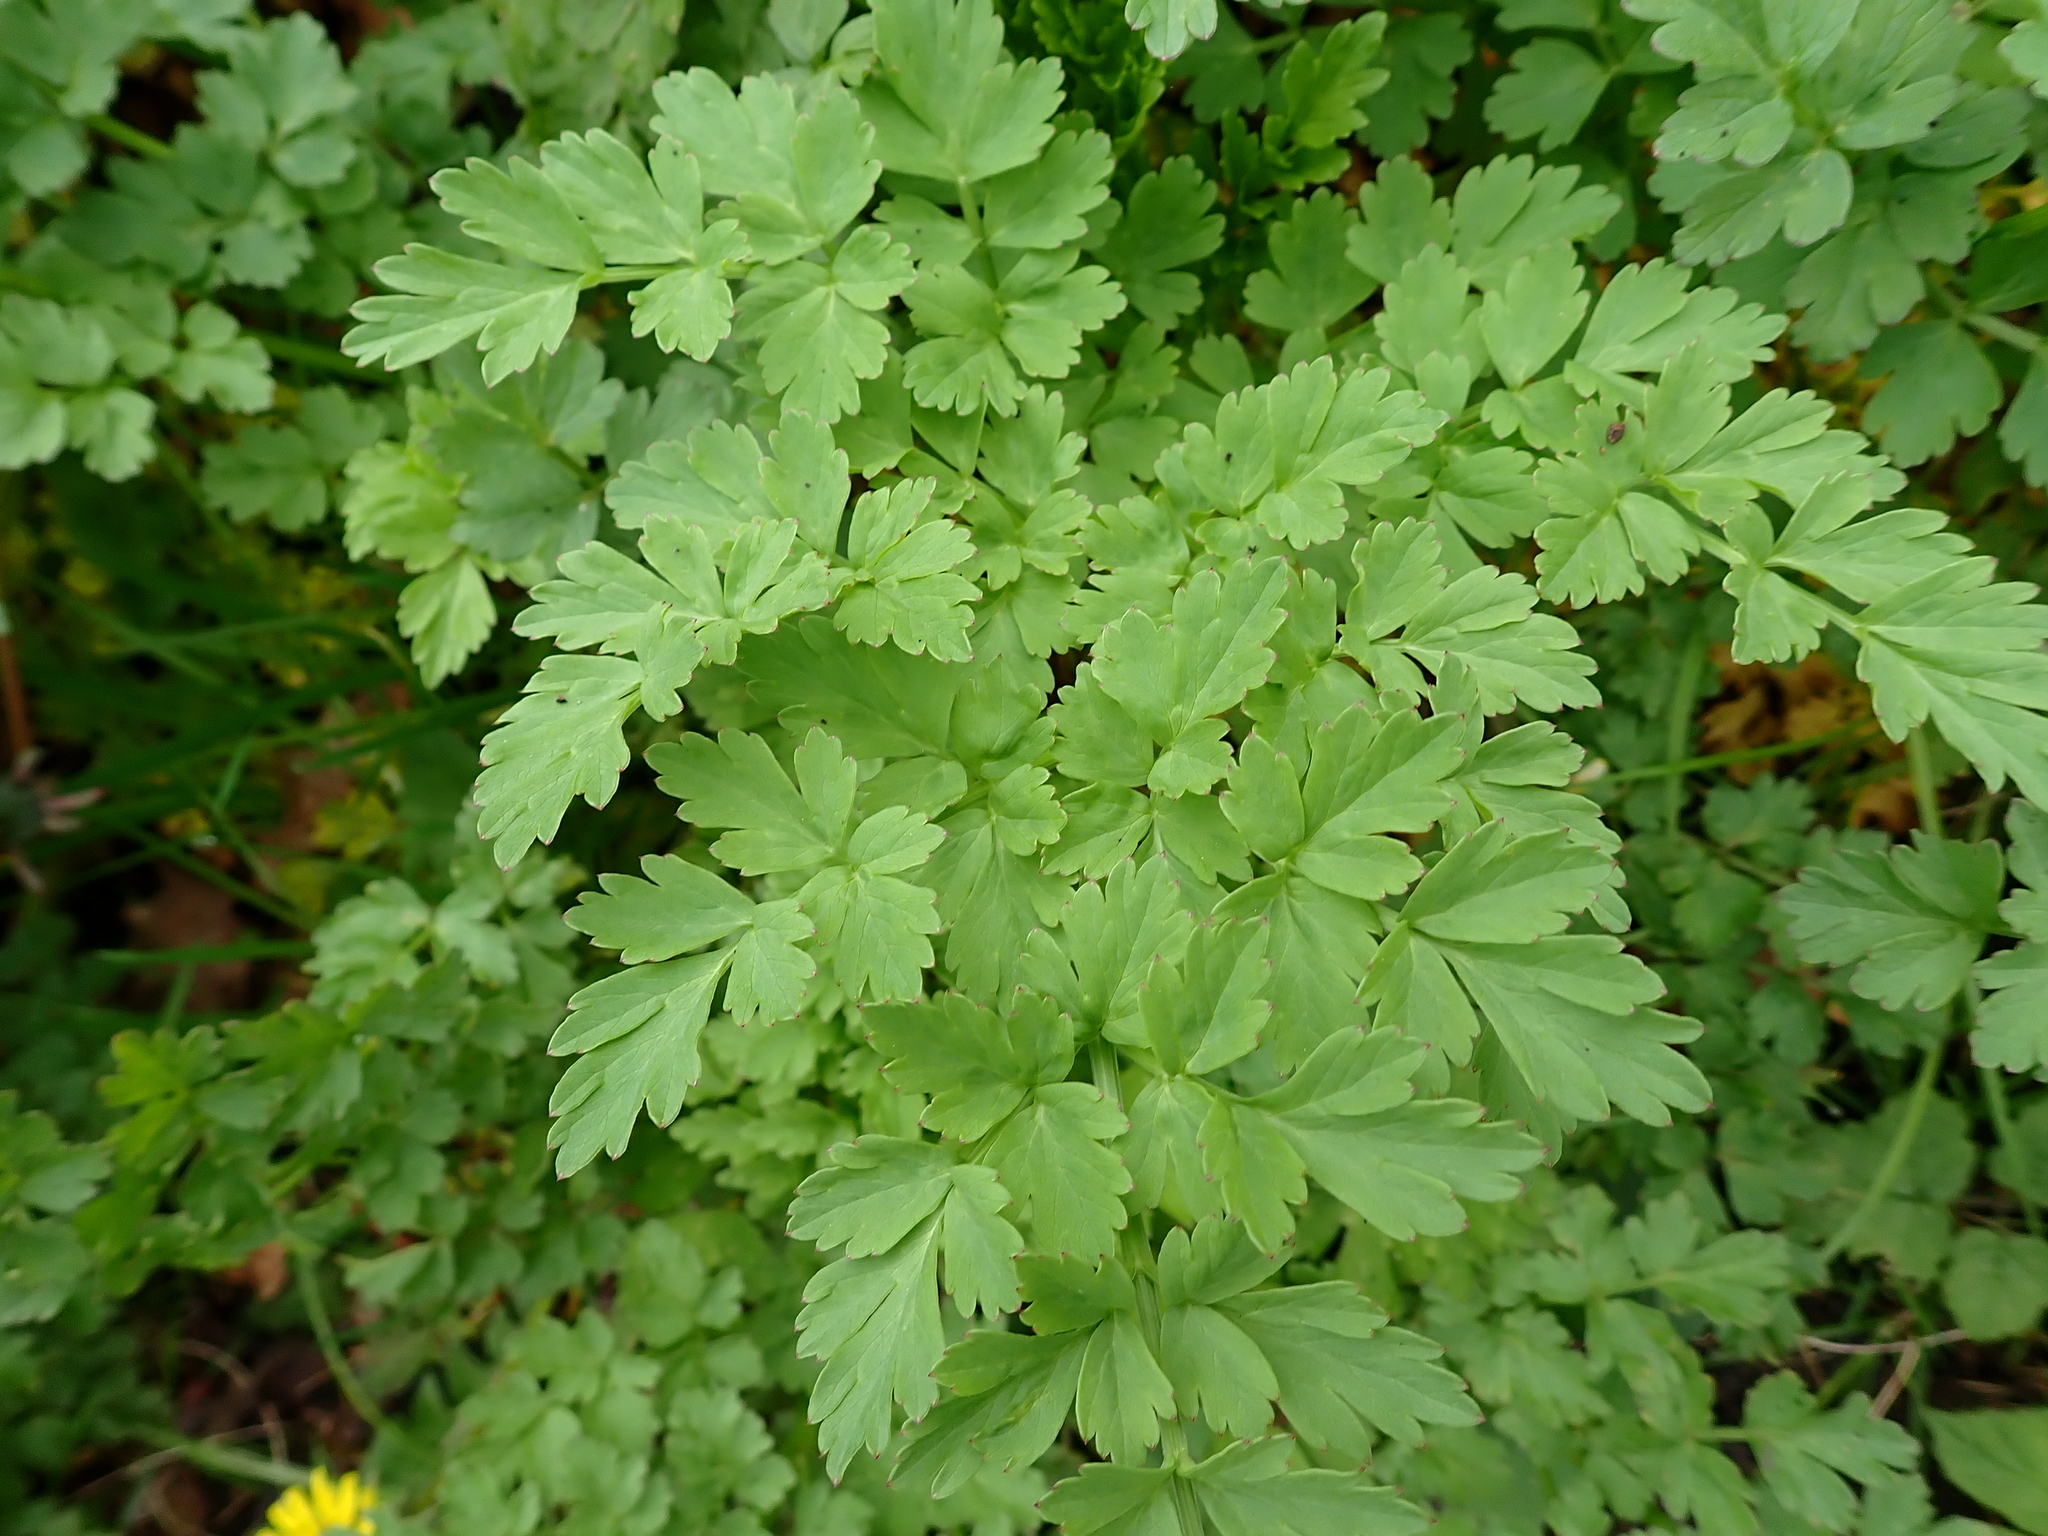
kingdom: Plantae
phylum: Tracheophyta
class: Magnoliopsida
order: Apiales
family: Apiaceae
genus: Oenanthe
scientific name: Oenanthe crocata
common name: Hemlock water-dropwort
